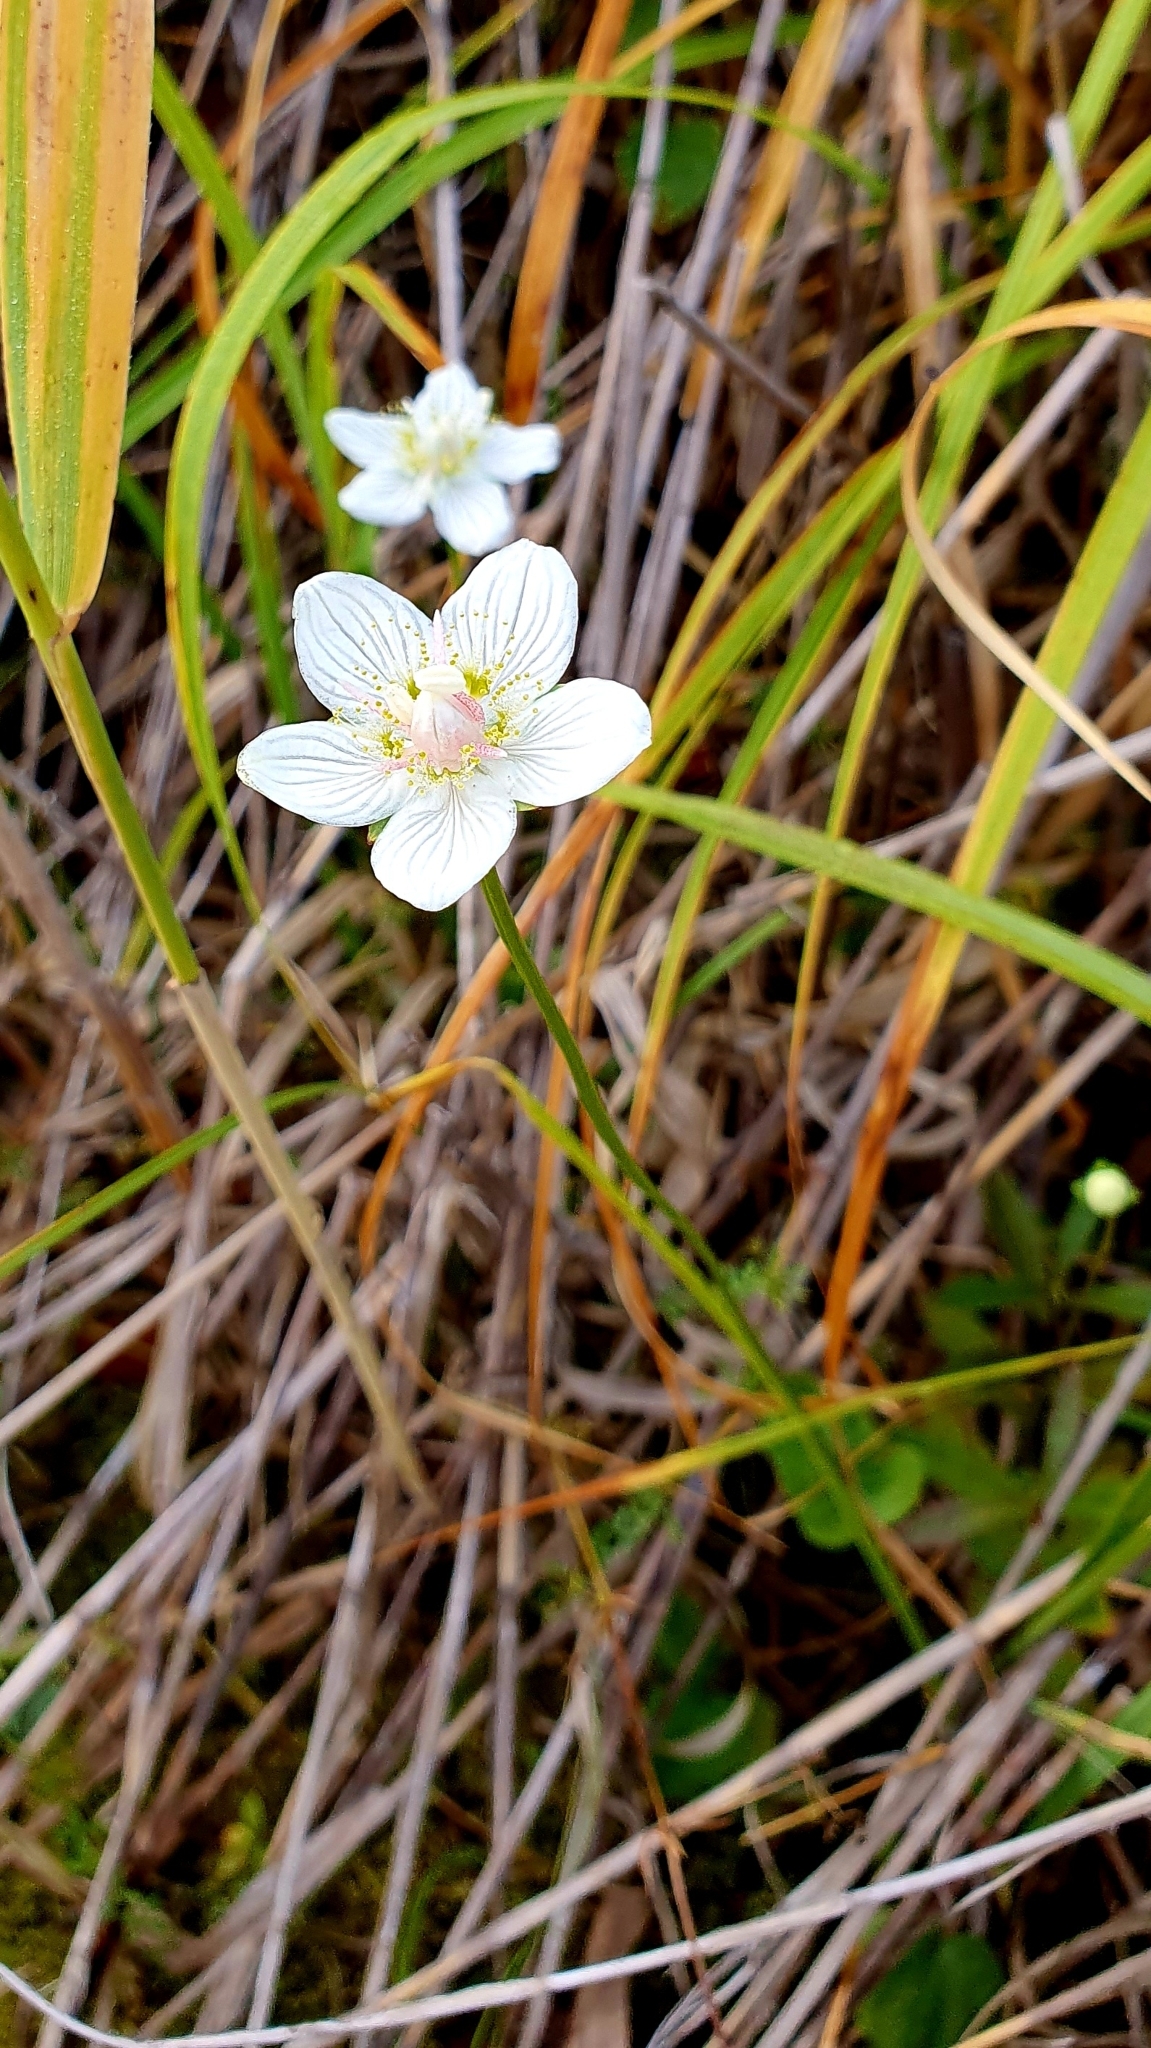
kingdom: Plantae
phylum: Tracheophyta
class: Magnoliopsida
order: Celastrales
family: Parnassiaceae
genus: Parnassia
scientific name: Parnassia palustris
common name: Grass-of-parnassus
